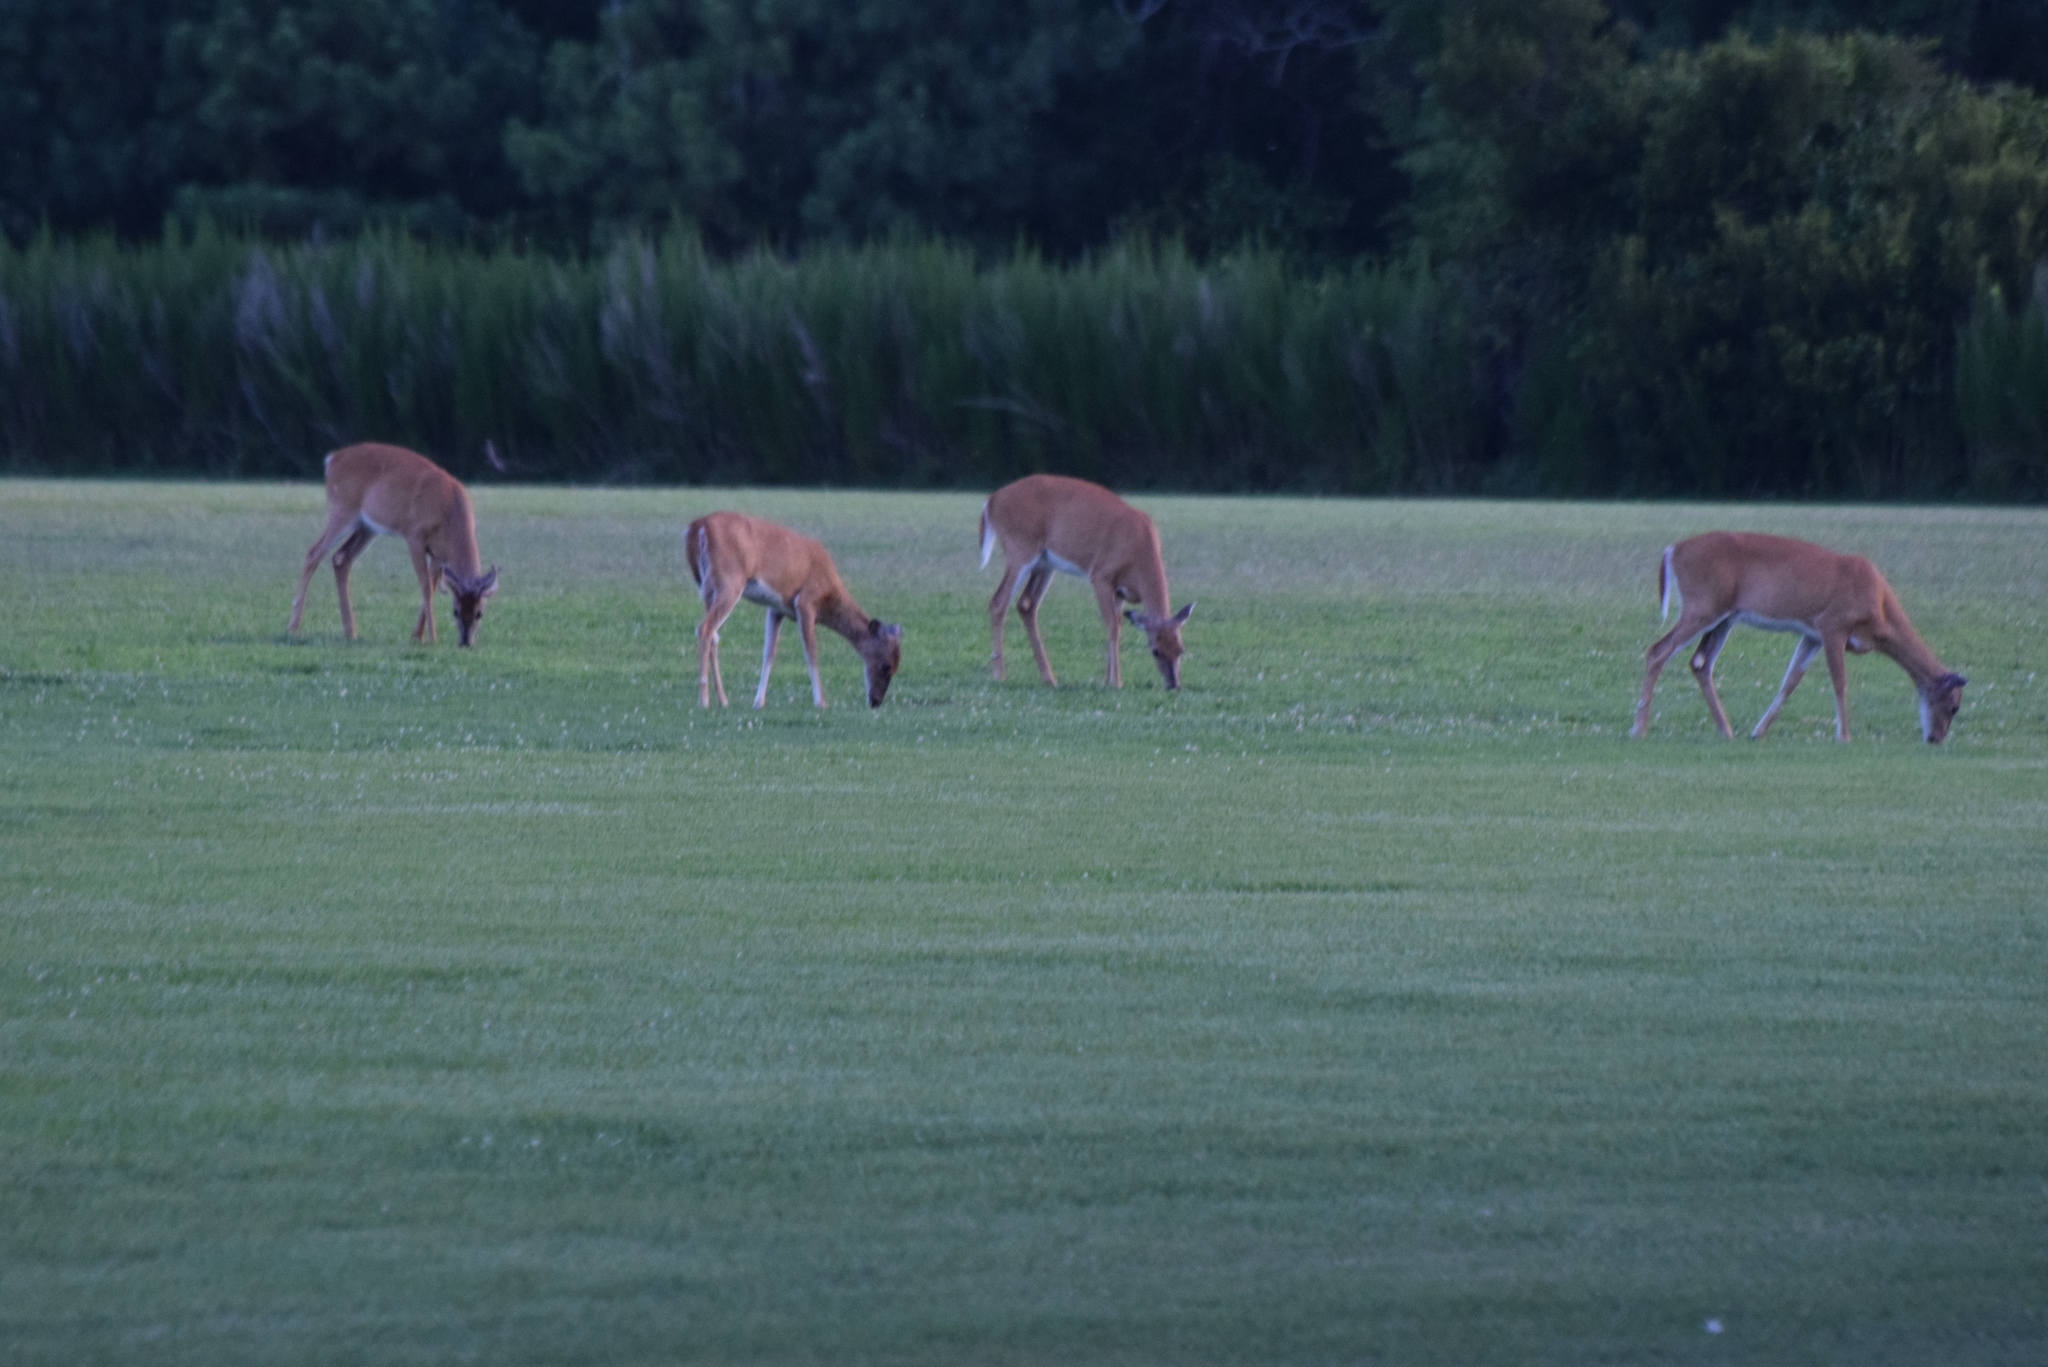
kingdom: Animalia
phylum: Chordata
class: Mammalia
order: Artiodactyla
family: Cervidae
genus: Odocoileus
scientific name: Odocoileus virginianus
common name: White-tailed deer
